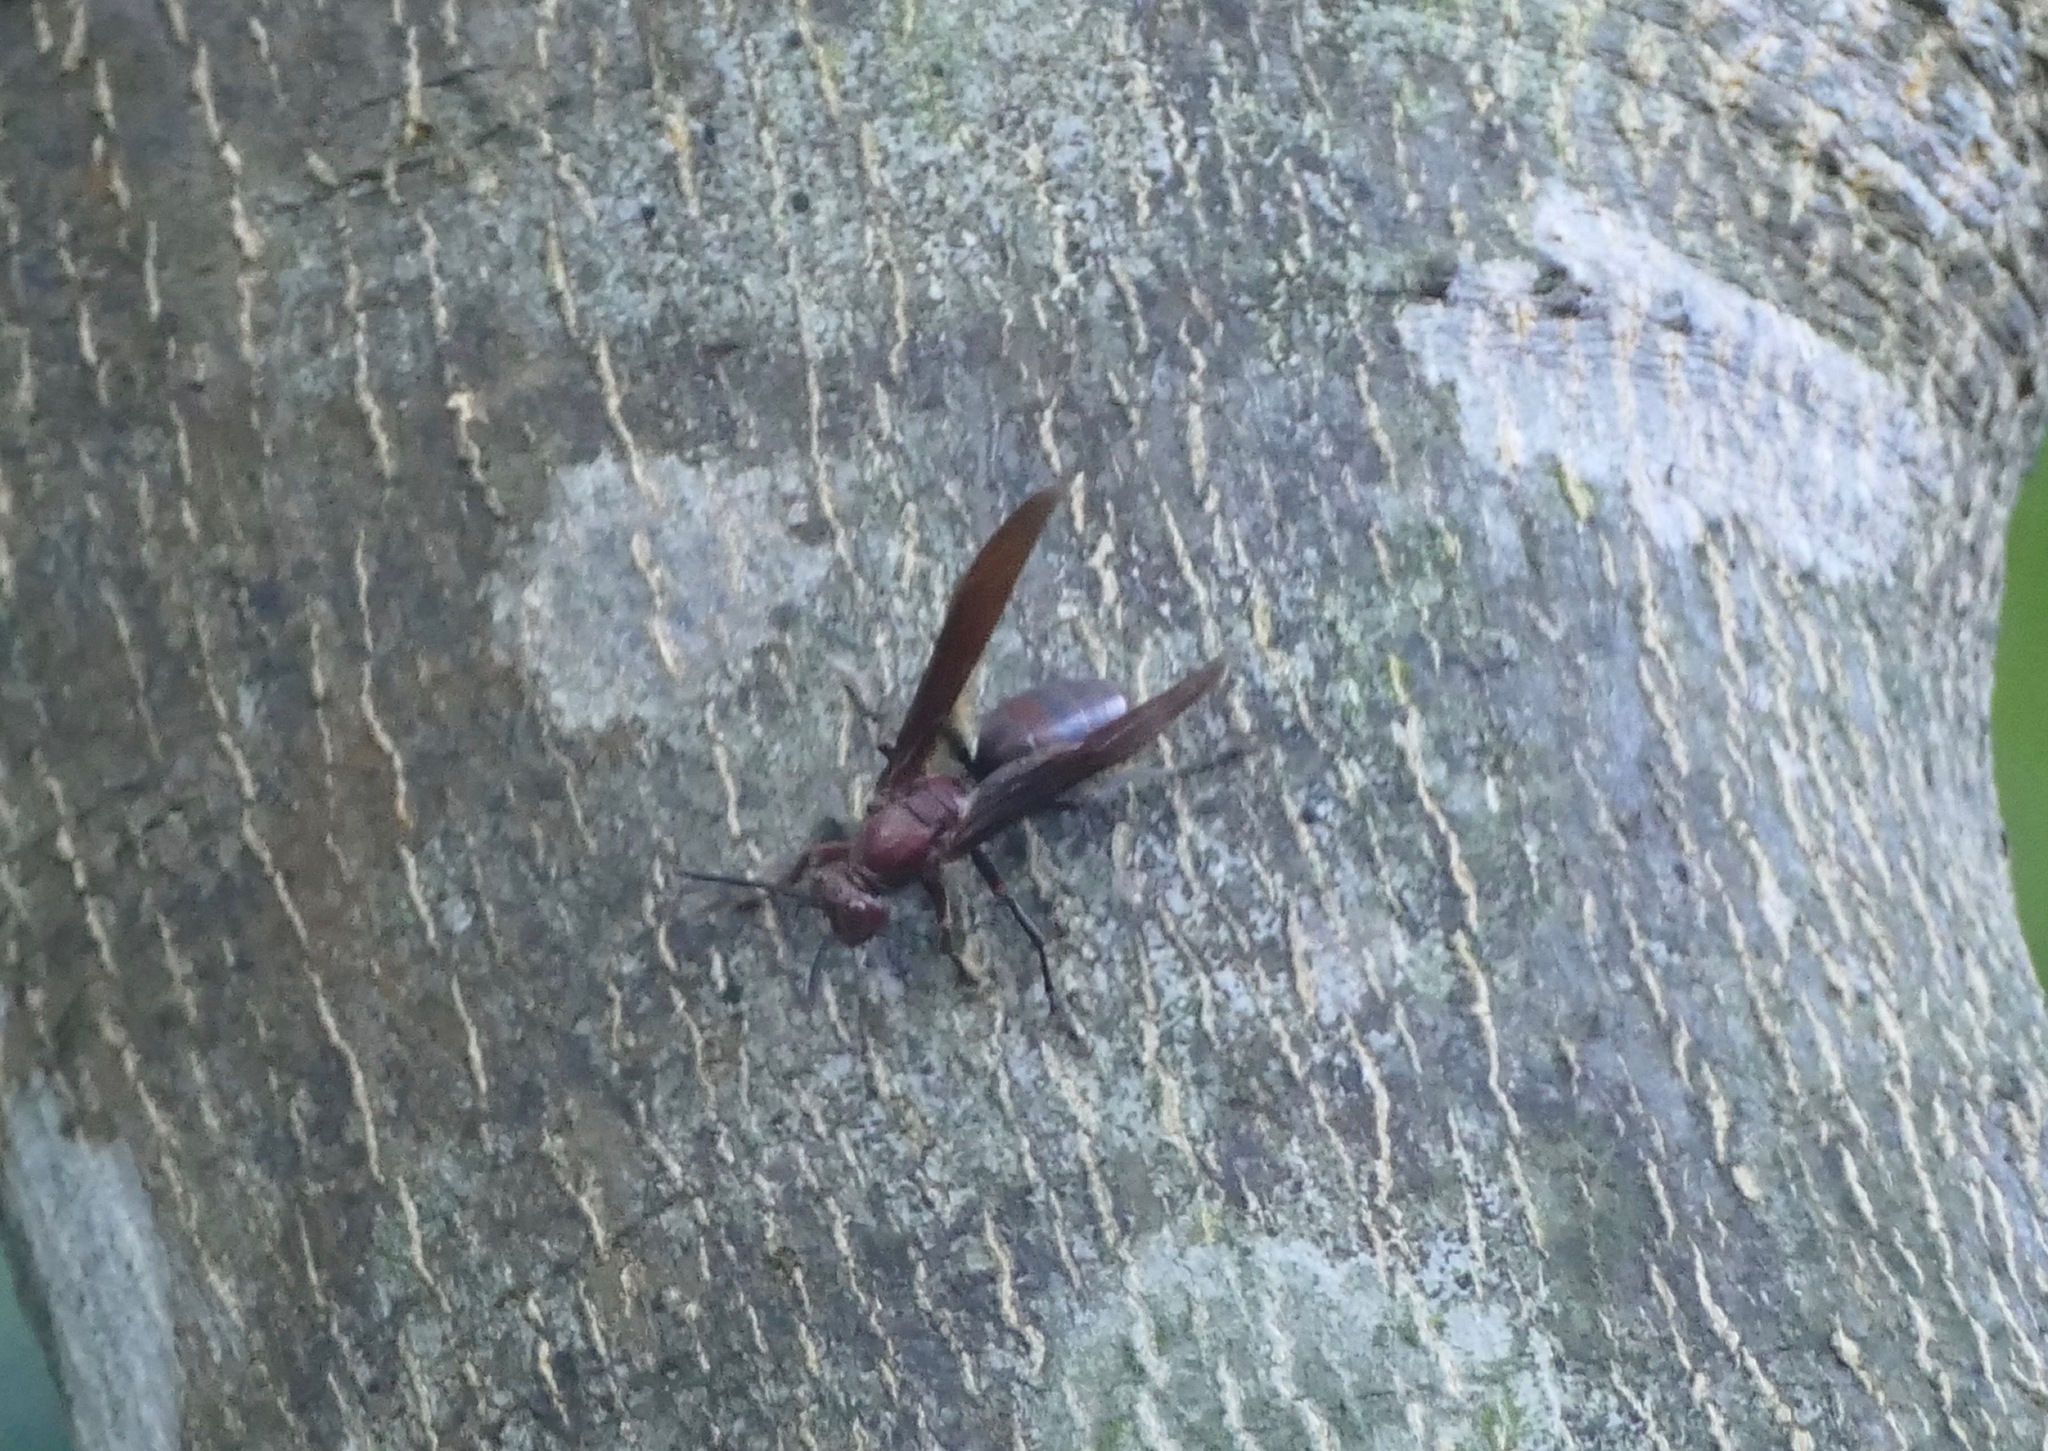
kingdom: Animalia
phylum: Arthropoda
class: Insecta
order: Hymenoptera
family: Eumenidae
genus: Polistes
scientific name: Polistes gigas
